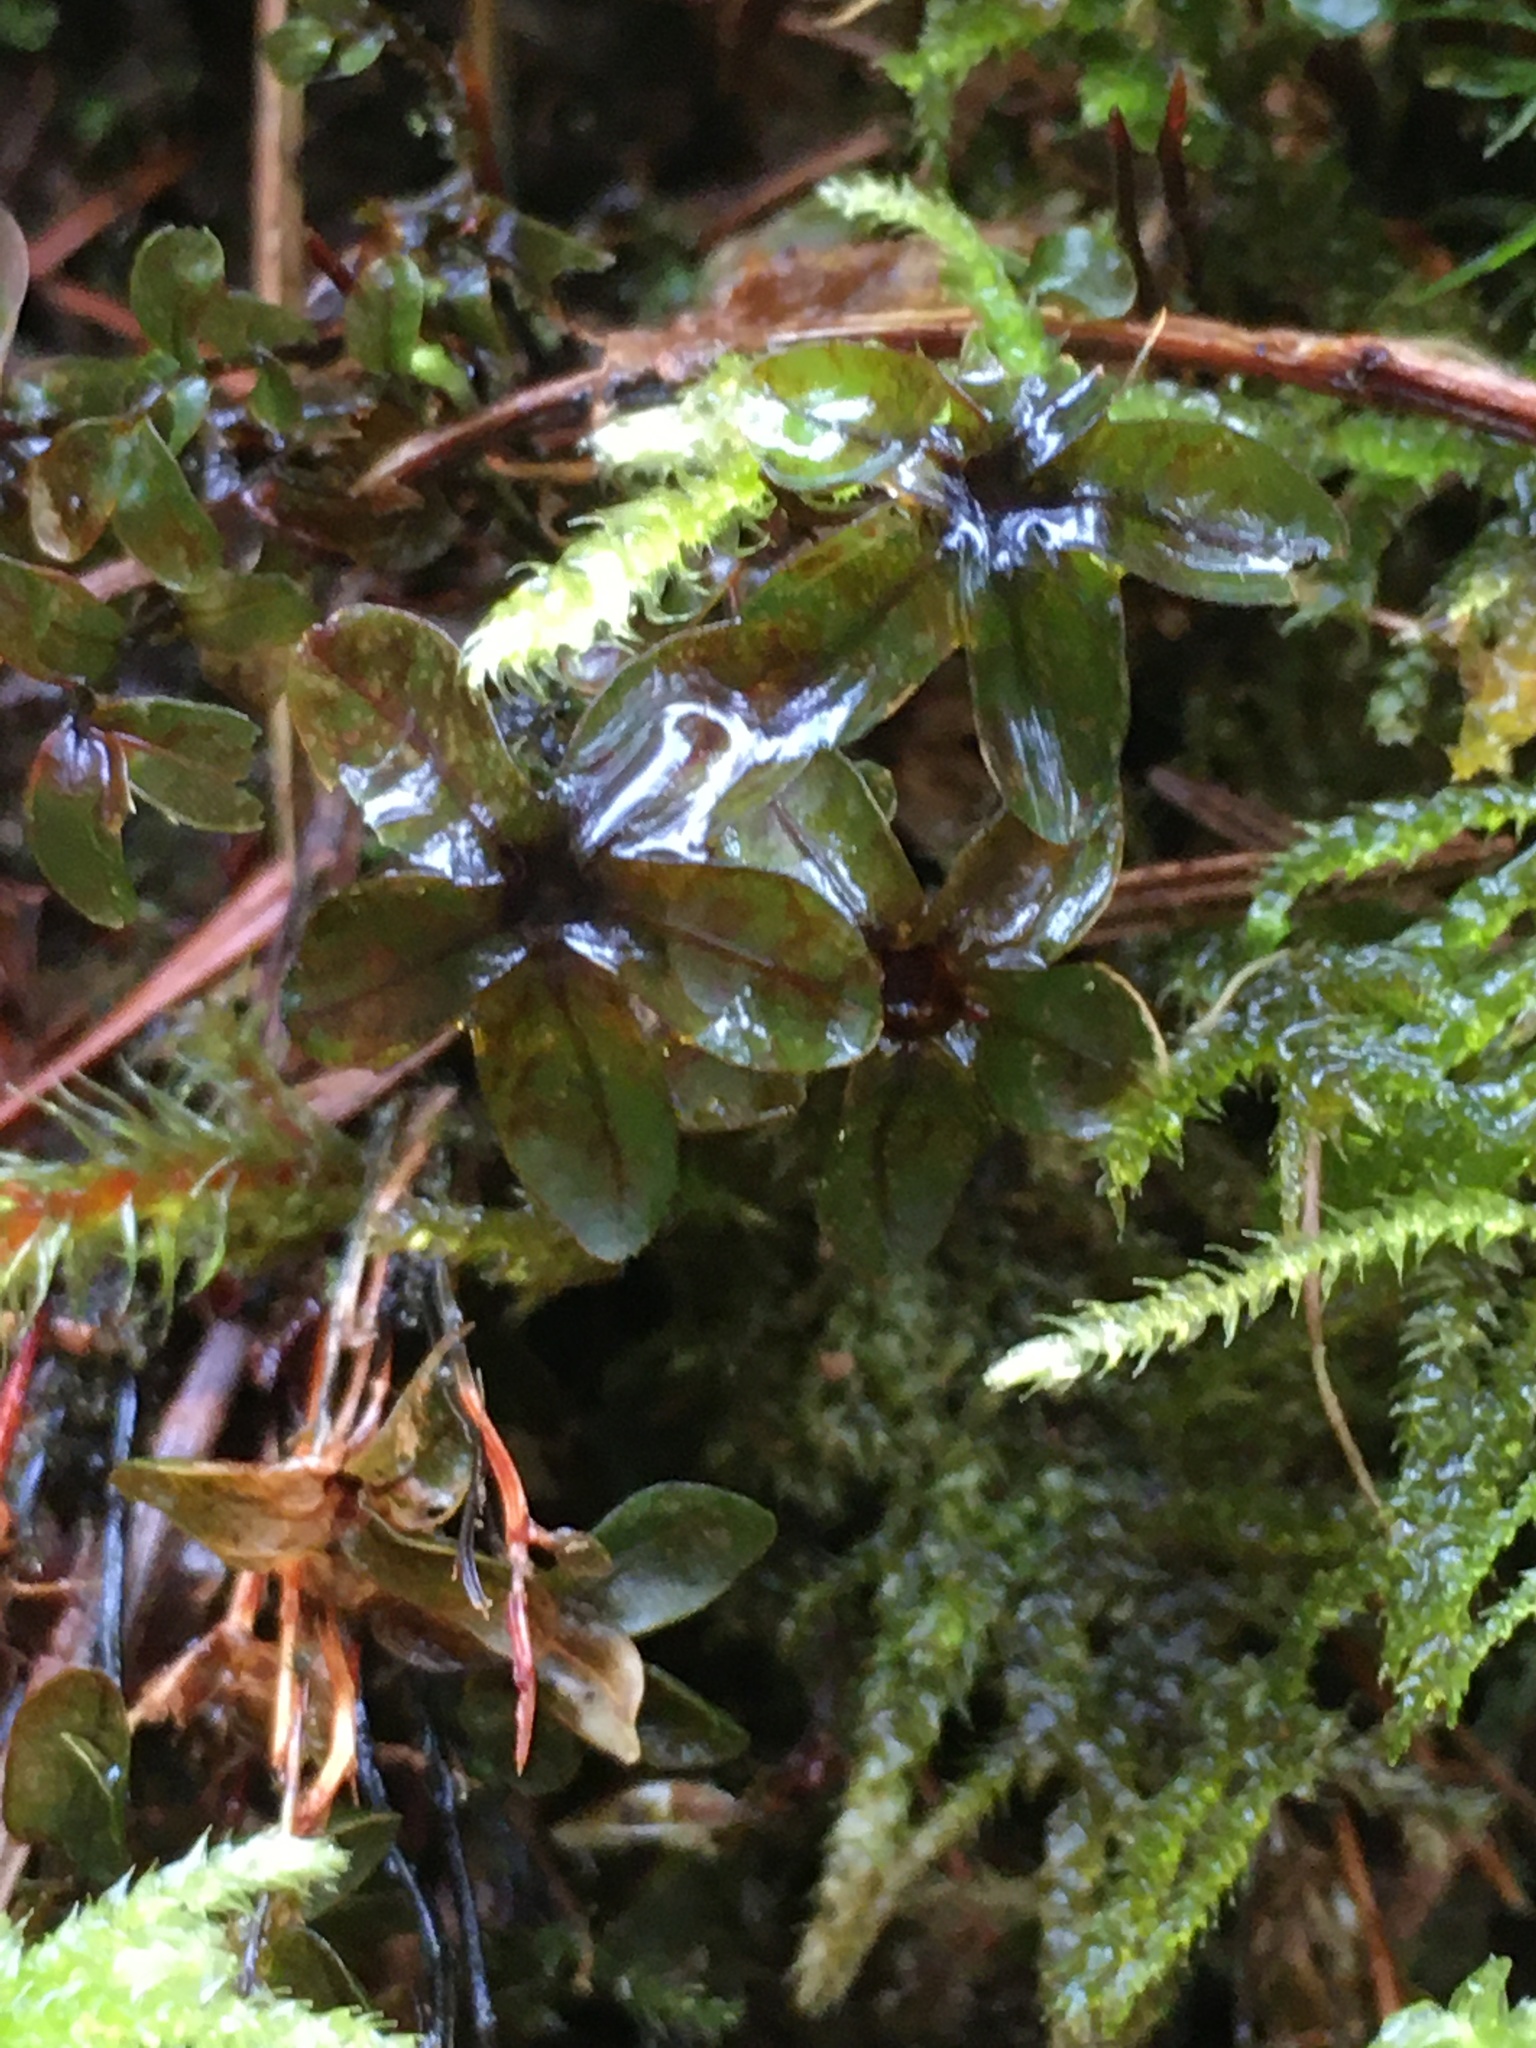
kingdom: Plantae
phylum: Bryophyta
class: Bryopsida
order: Bryales
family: Mniaceae
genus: Rhizomnium
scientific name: Rhizomnium glabrescens
